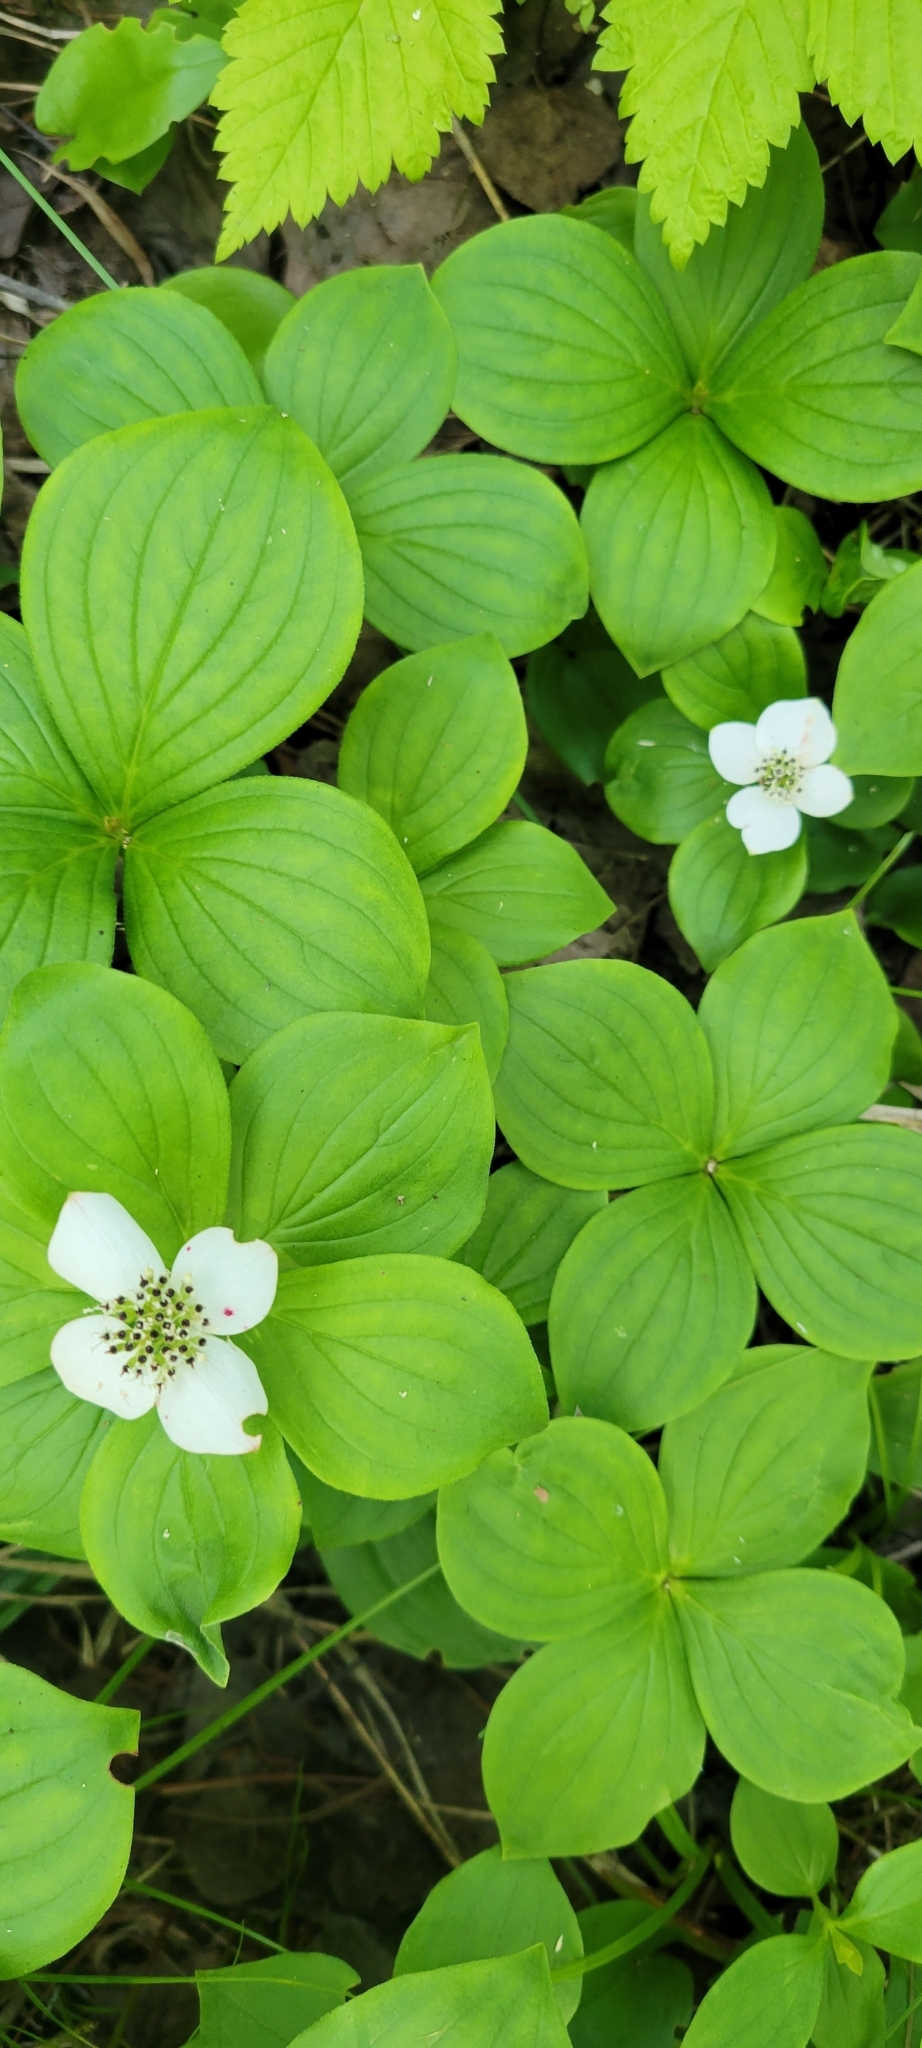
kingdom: Plantae
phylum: Tracheophyta
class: Magnoliopsida
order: Cornales
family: Cornaceae
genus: Cornus
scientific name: Cornus canadensis
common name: Creeping dogwood
